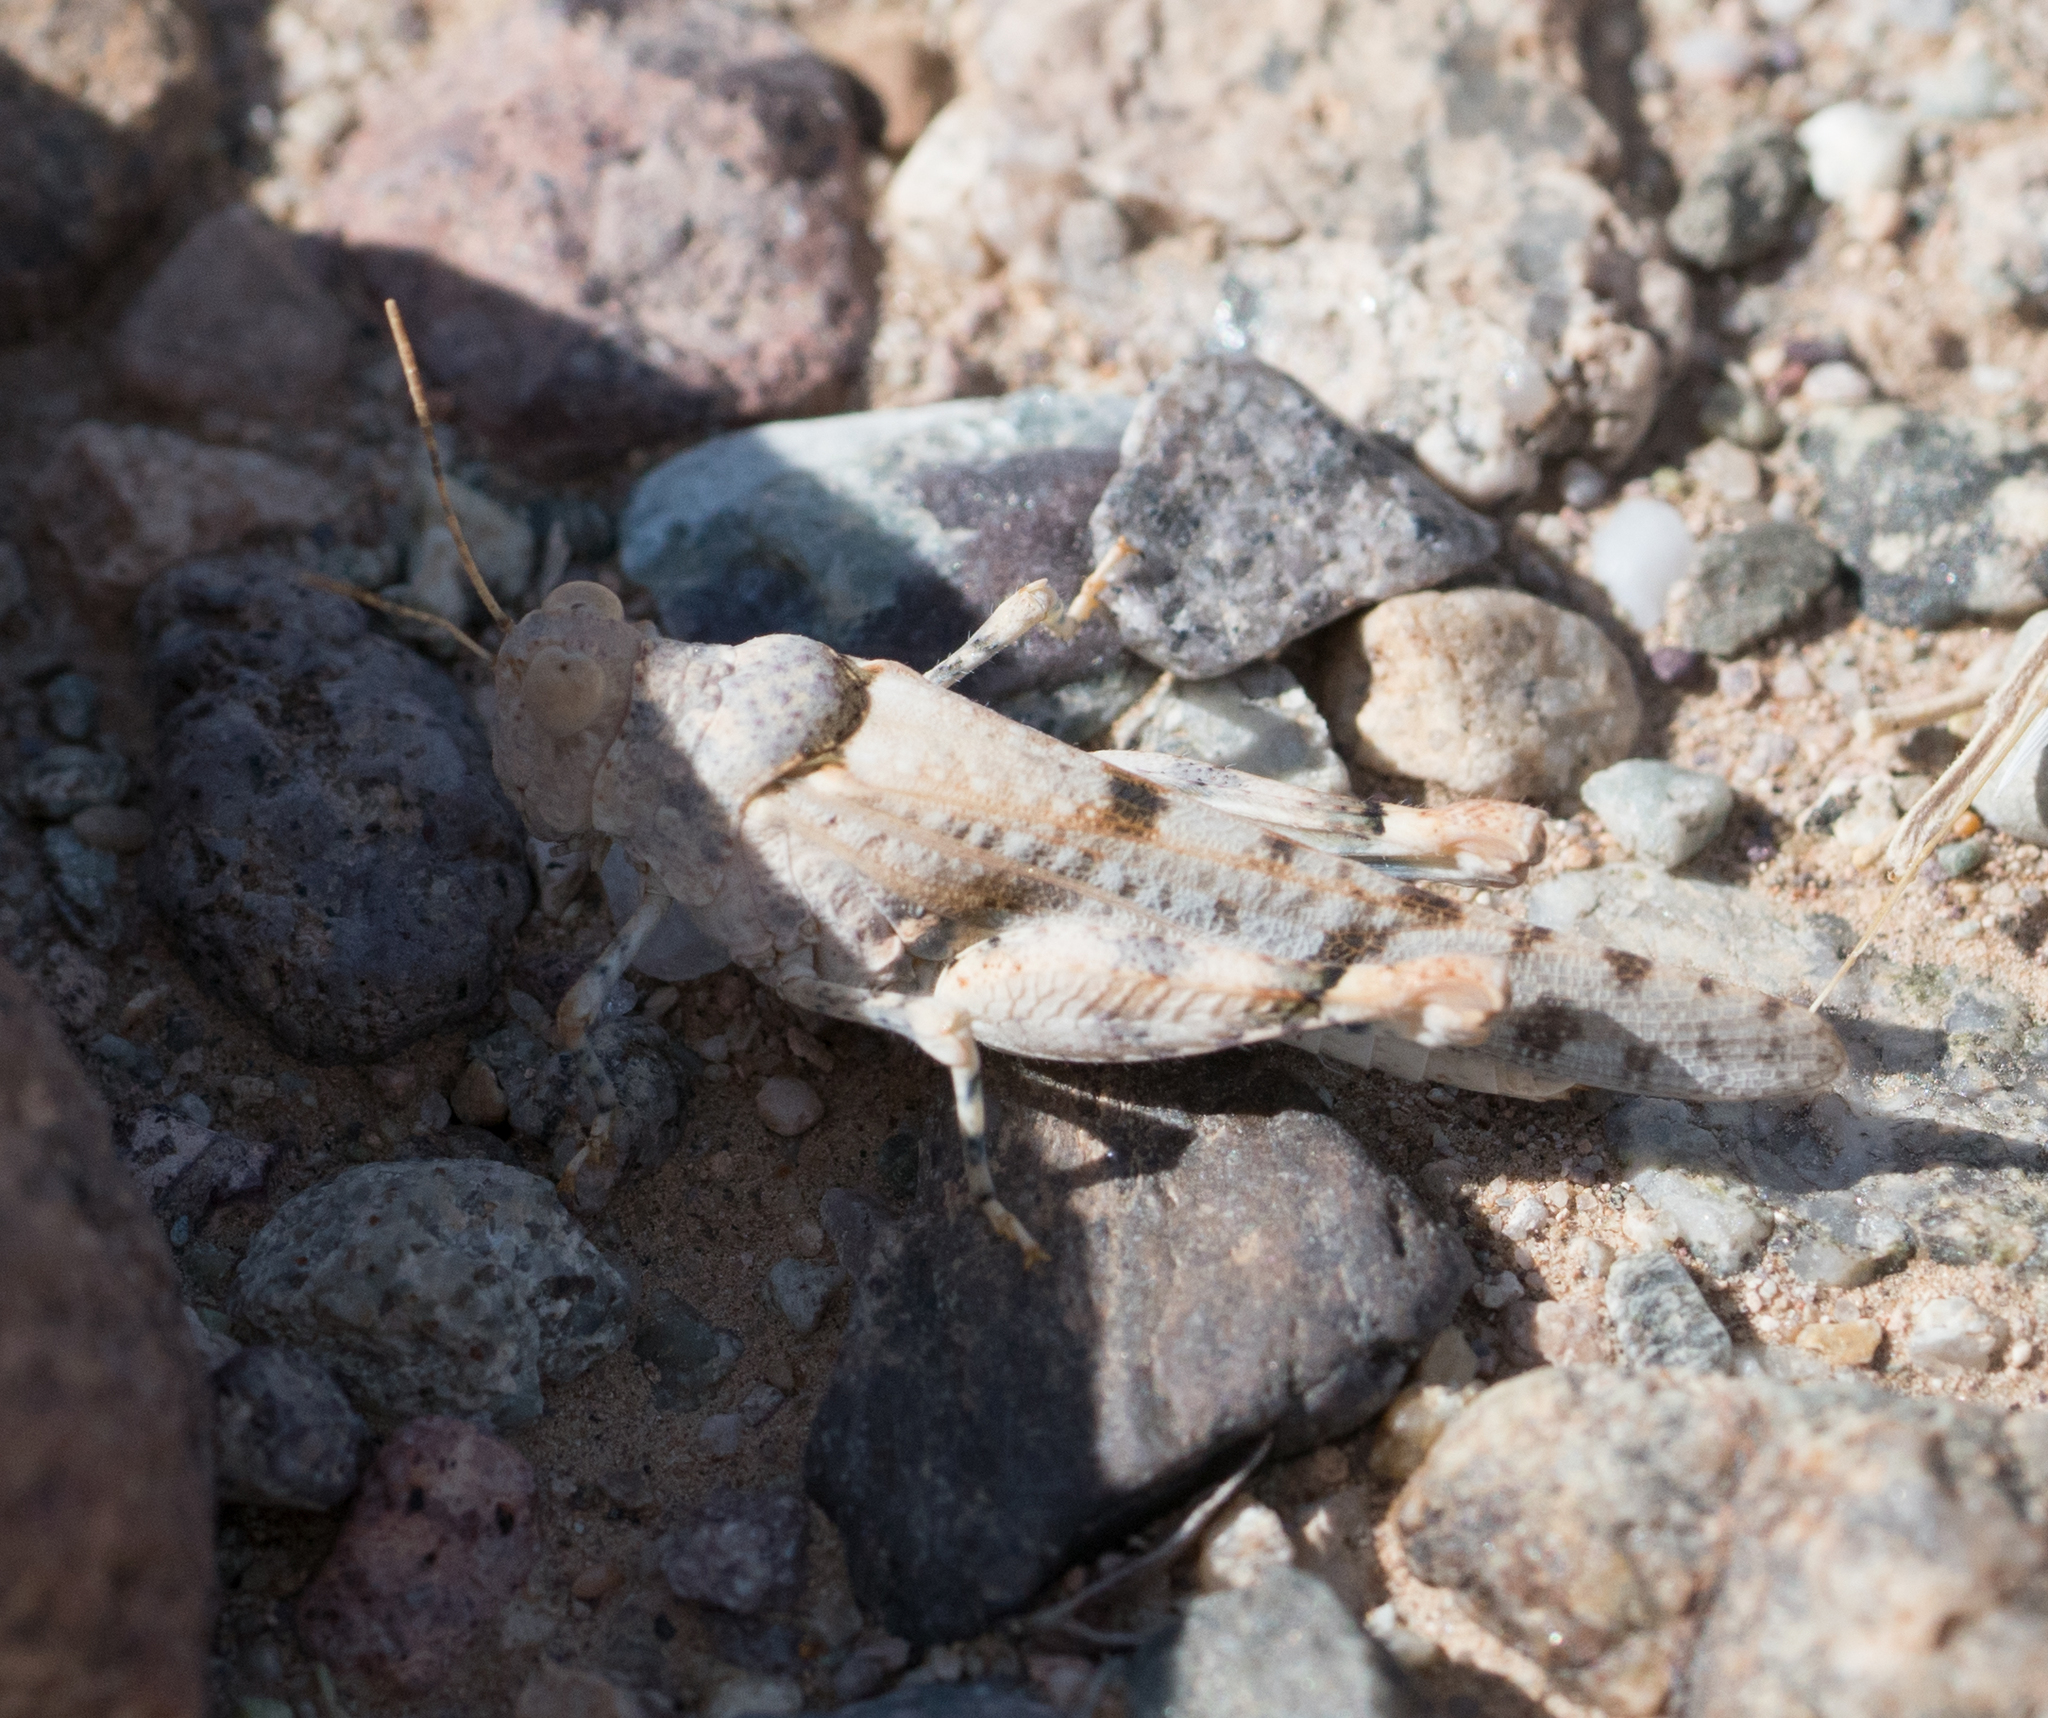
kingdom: Animalia
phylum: Arthropoda
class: Insecta
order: Orthoptera
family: Acrididae
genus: Cibolacris
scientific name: Cibolacris parviceps
